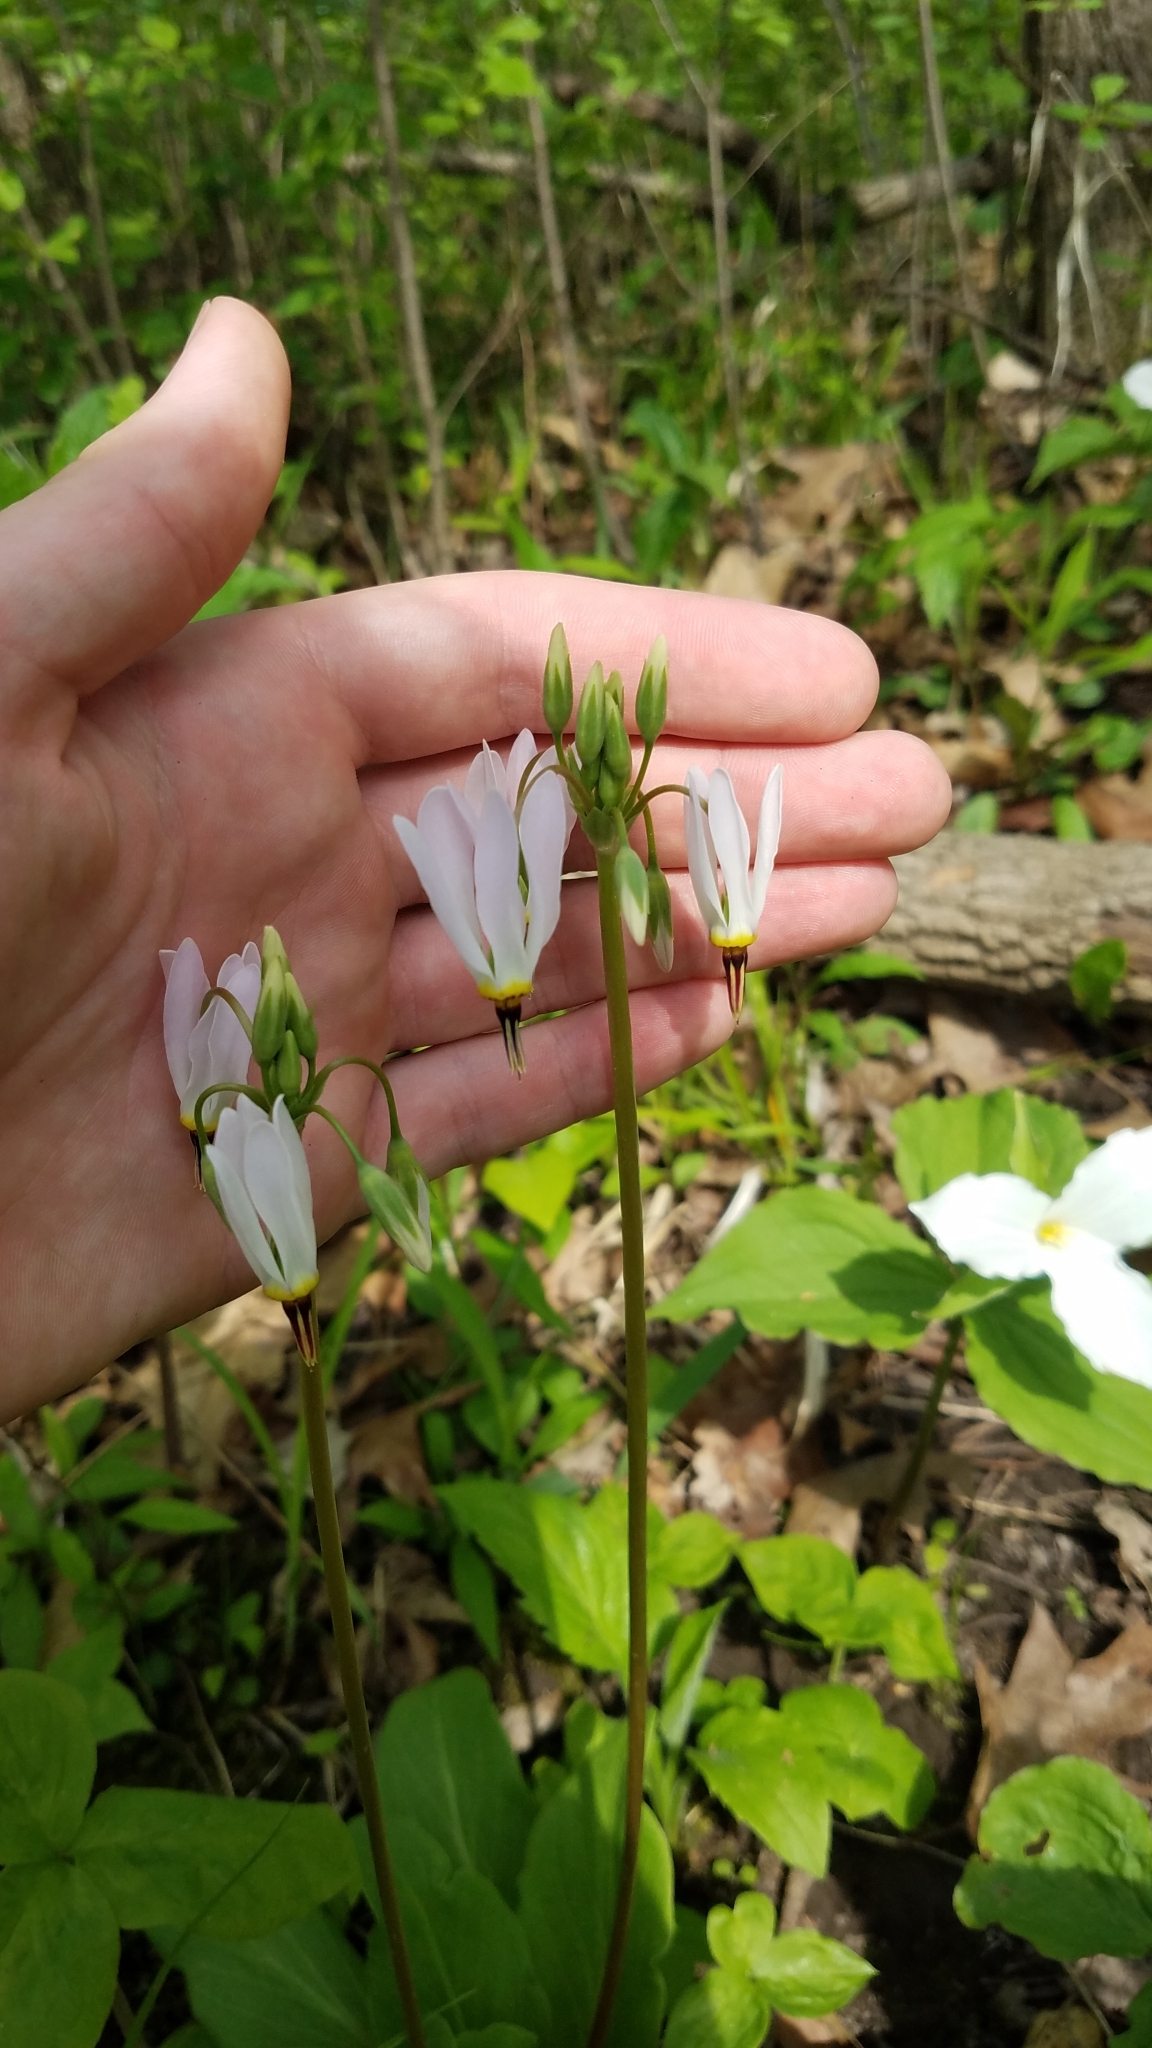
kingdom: Plantae
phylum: Tracheophyta
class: Magnoliopsida
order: Ericales
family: Primulaceae
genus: Dodecatheon
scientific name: Dodecatheon meadia
